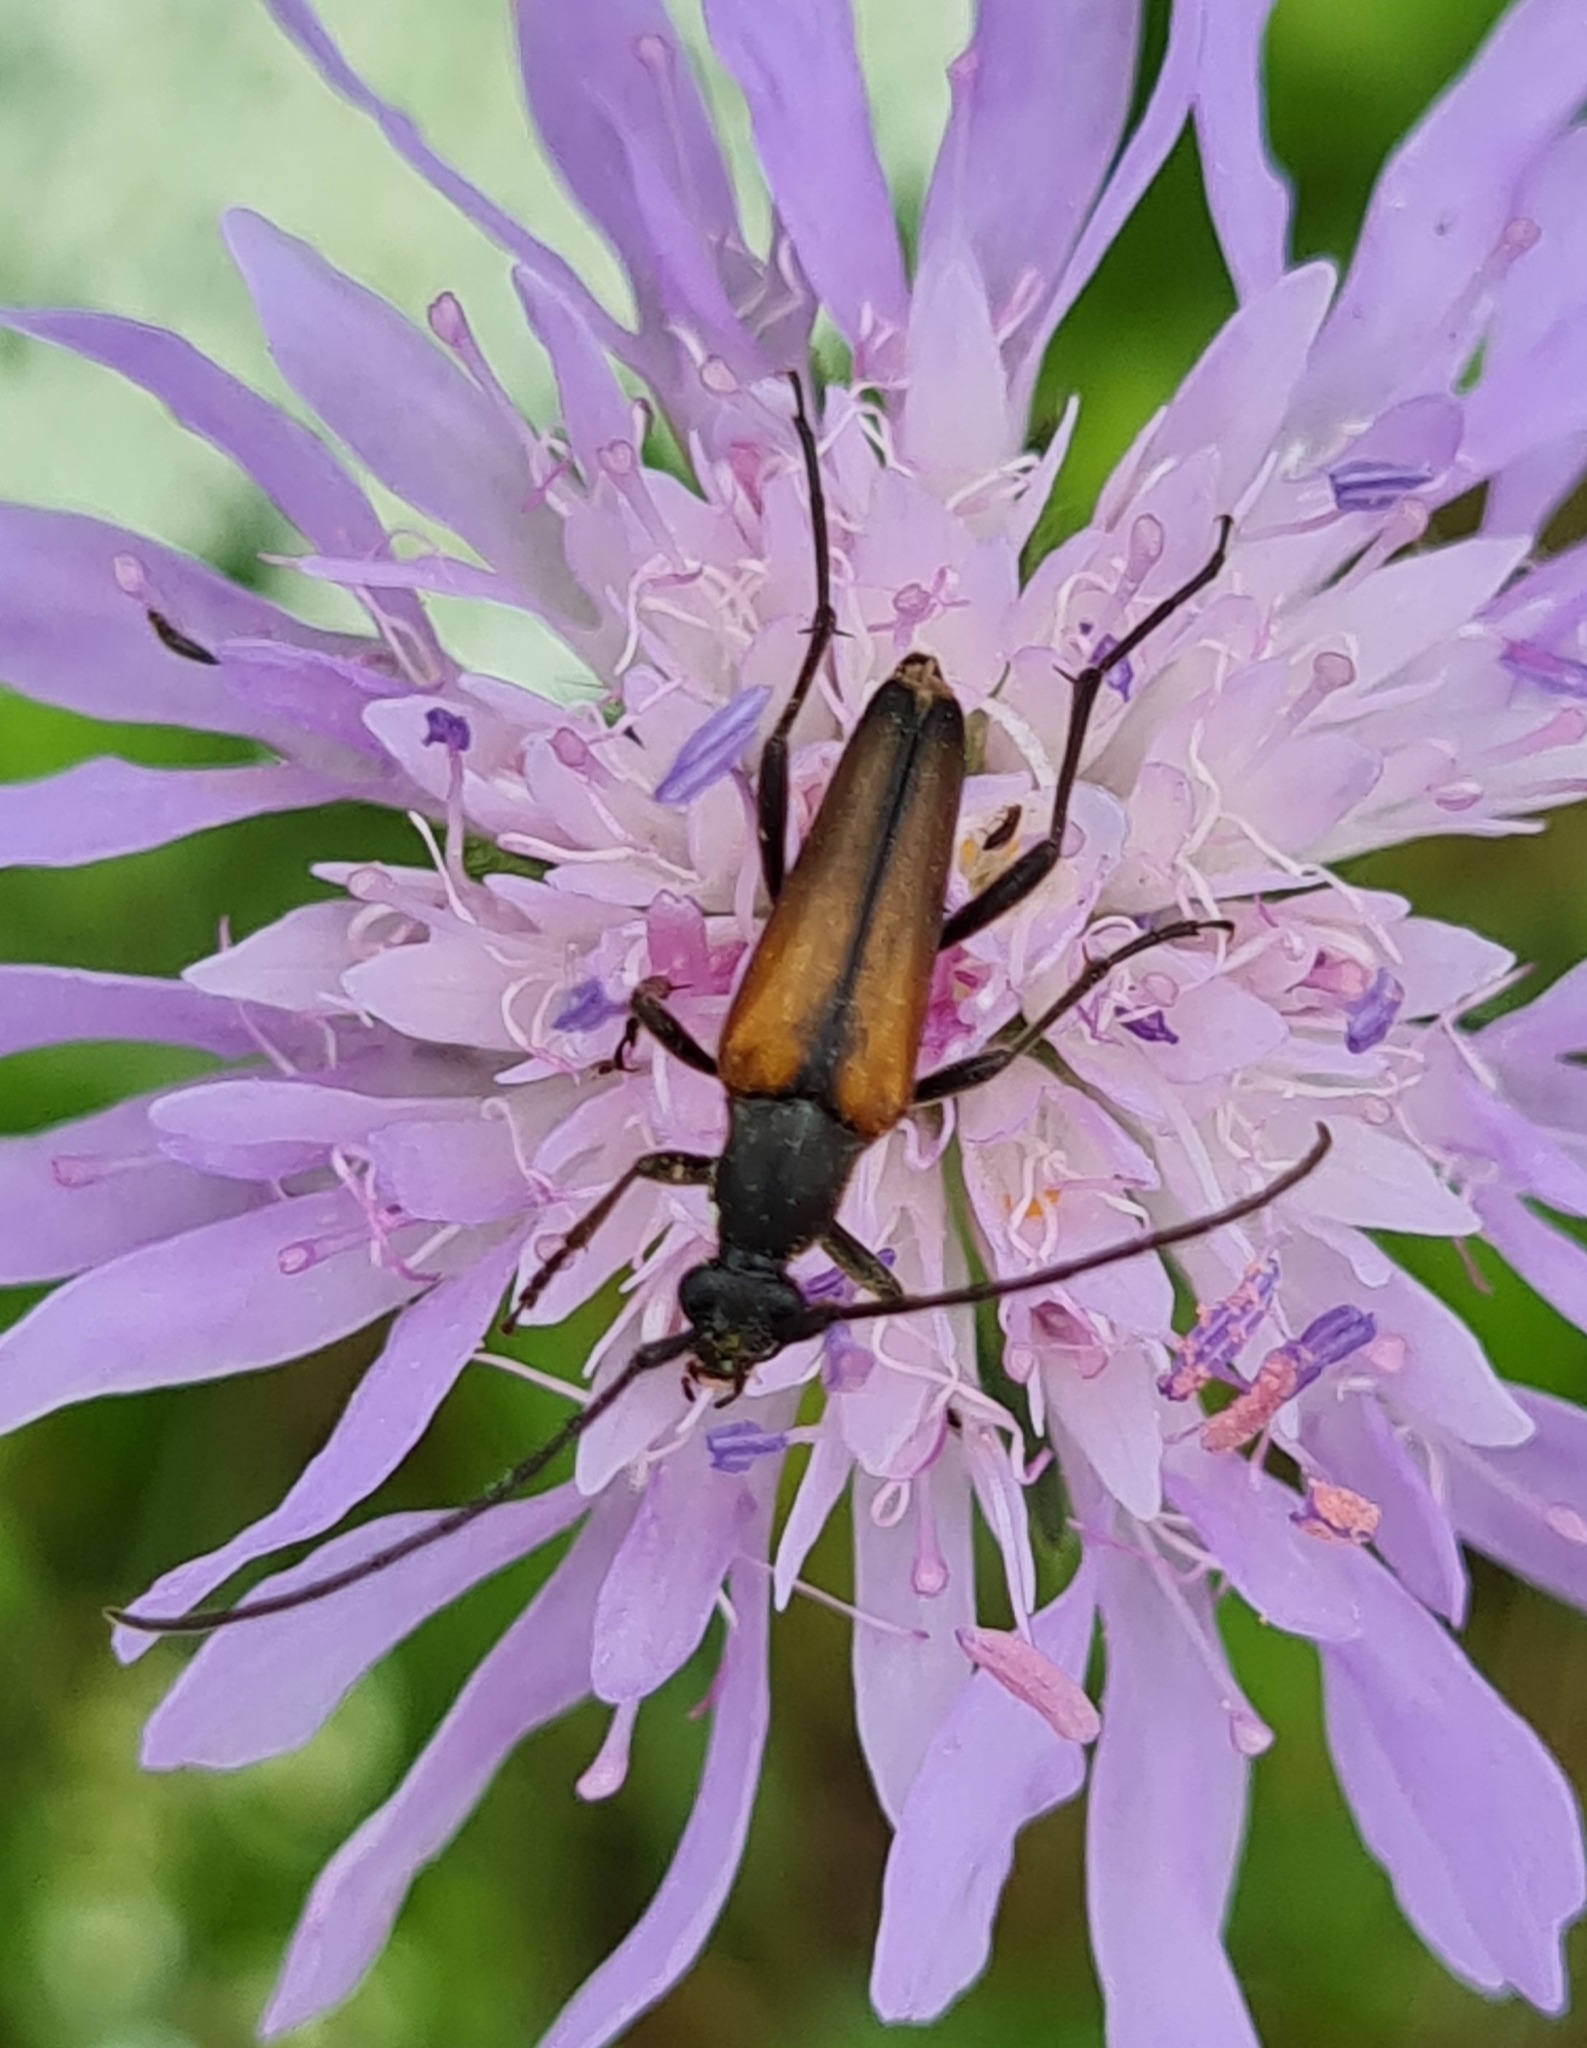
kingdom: Animalia
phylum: Arthropoda
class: Insecta
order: Coleoptera
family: Cerambycidae
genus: Stenurella
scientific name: Stenurella melanura
